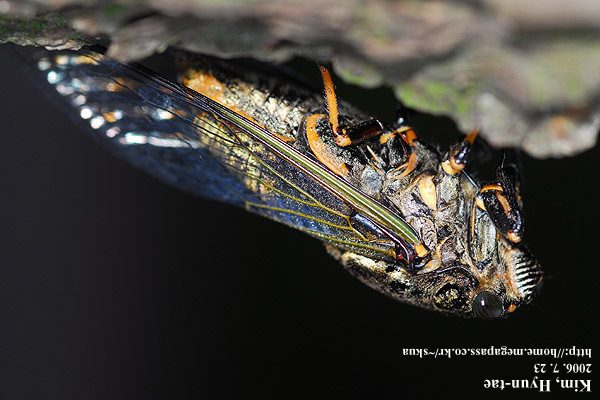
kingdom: Animalia
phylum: Arthropoda
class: Insecta
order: Hemiptera
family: Cicadidae
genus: Cryptotympana
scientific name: Cryptotympana atrata
